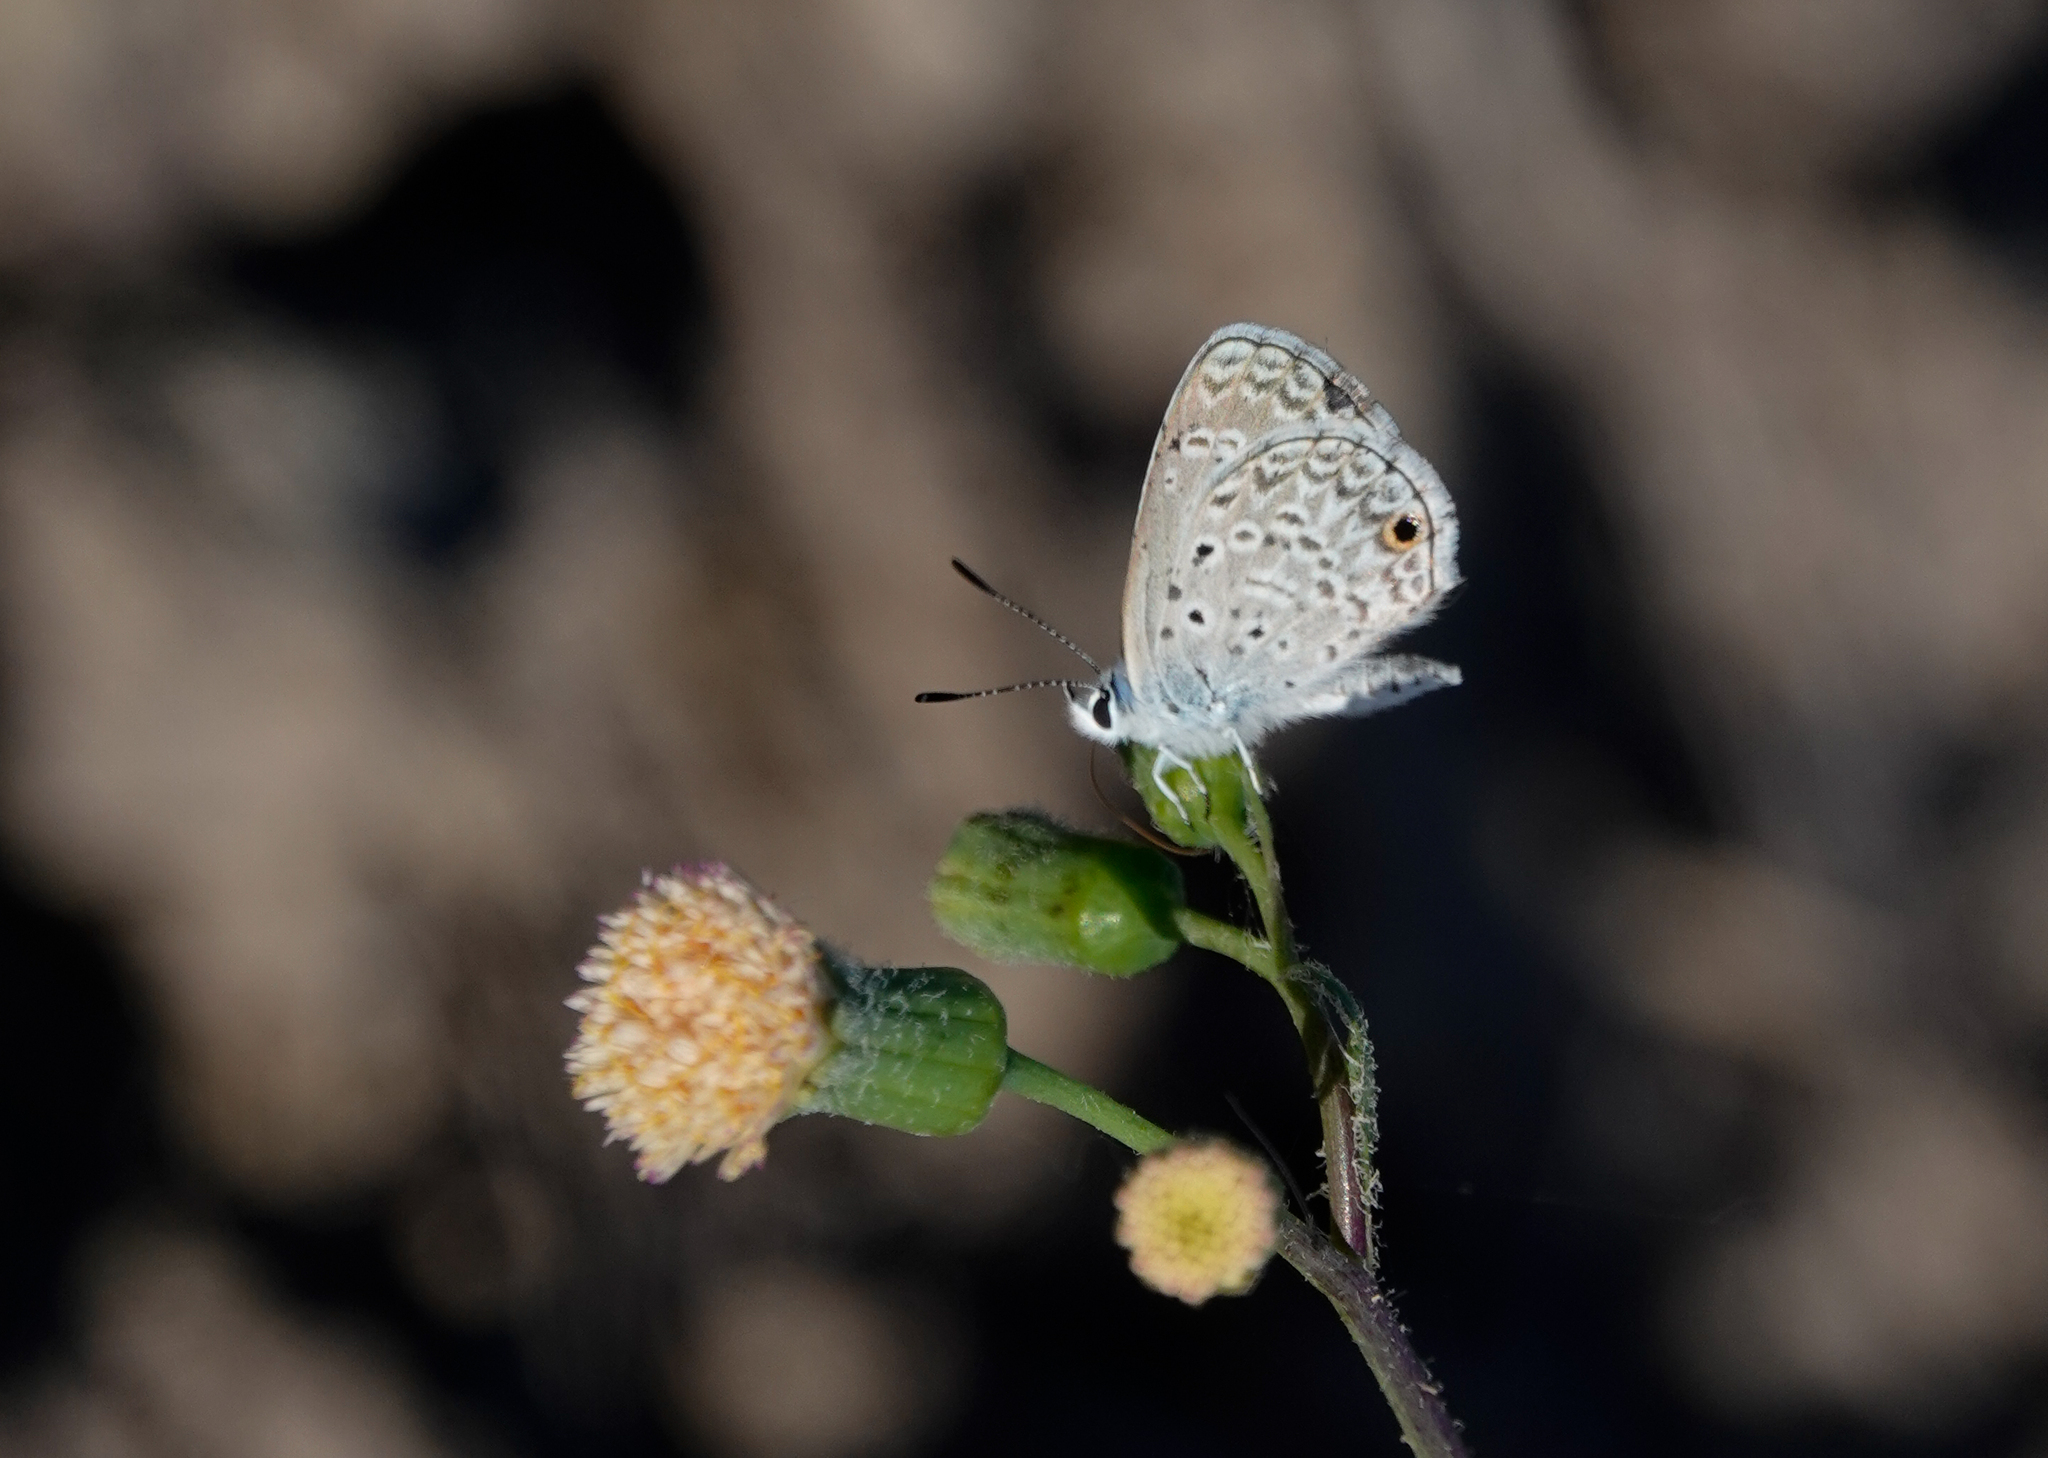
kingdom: Animalia
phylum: Arthropoda
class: Insecta
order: Lepidoptera
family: Lycaenidae
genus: Hemiargus
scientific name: Hemiargus hanno
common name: Common blue
